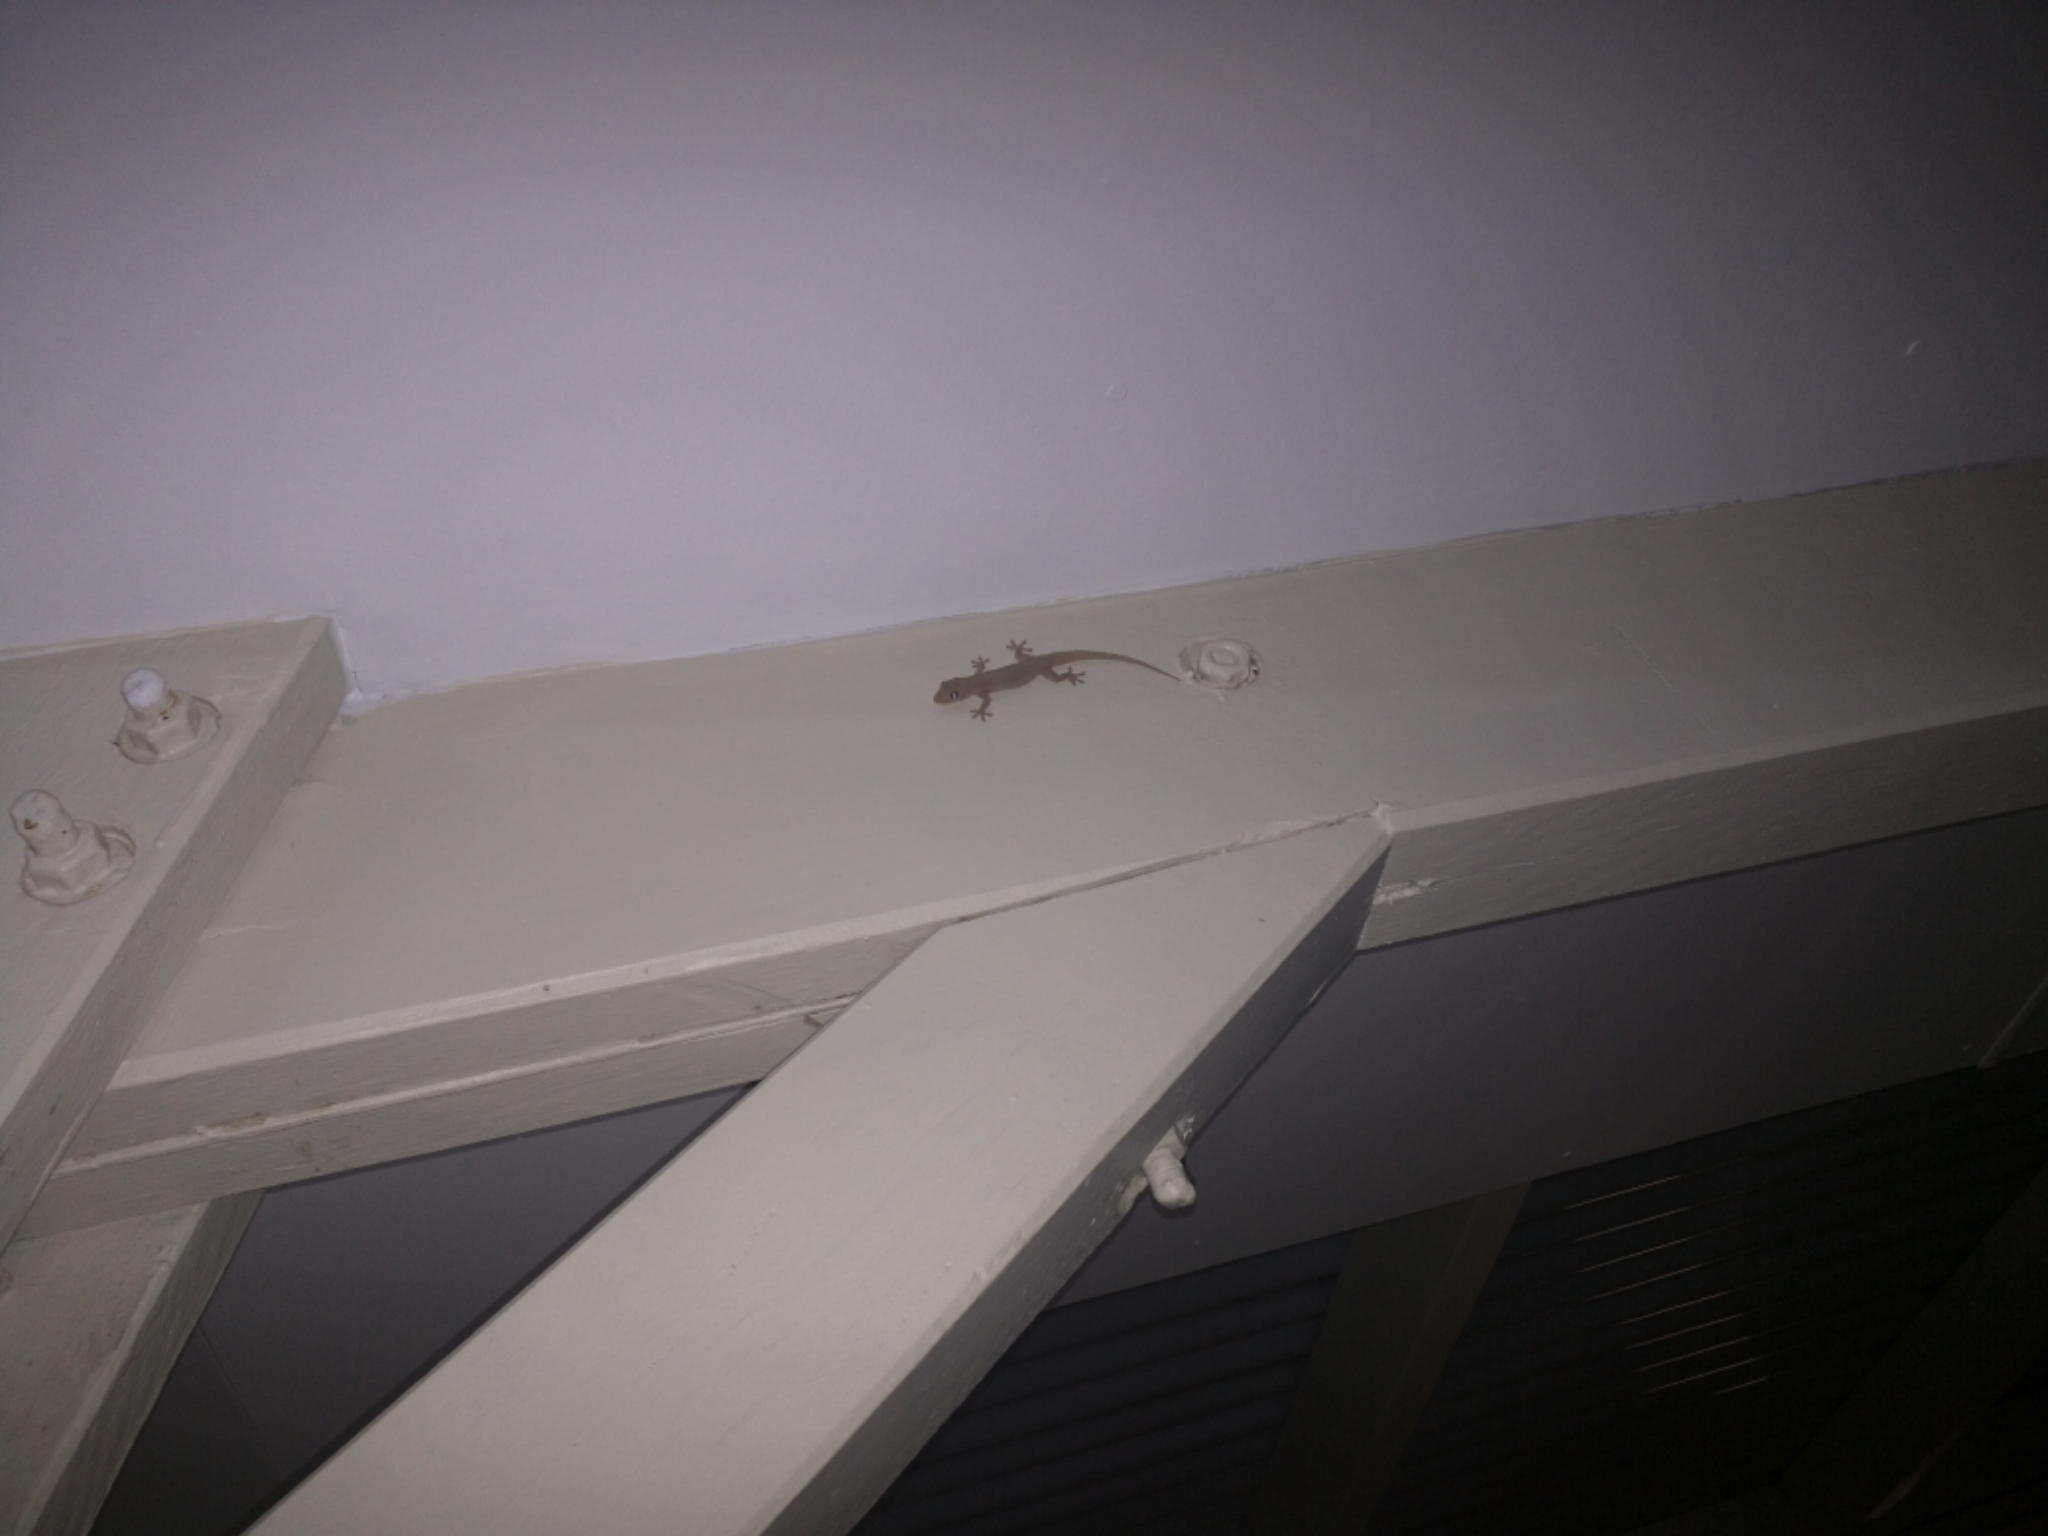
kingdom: Animalia
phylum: Chordata
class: Squamata
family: Gekkonidae
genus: Gehyra
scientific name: Gehyra dubia
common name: Dubious dtella
